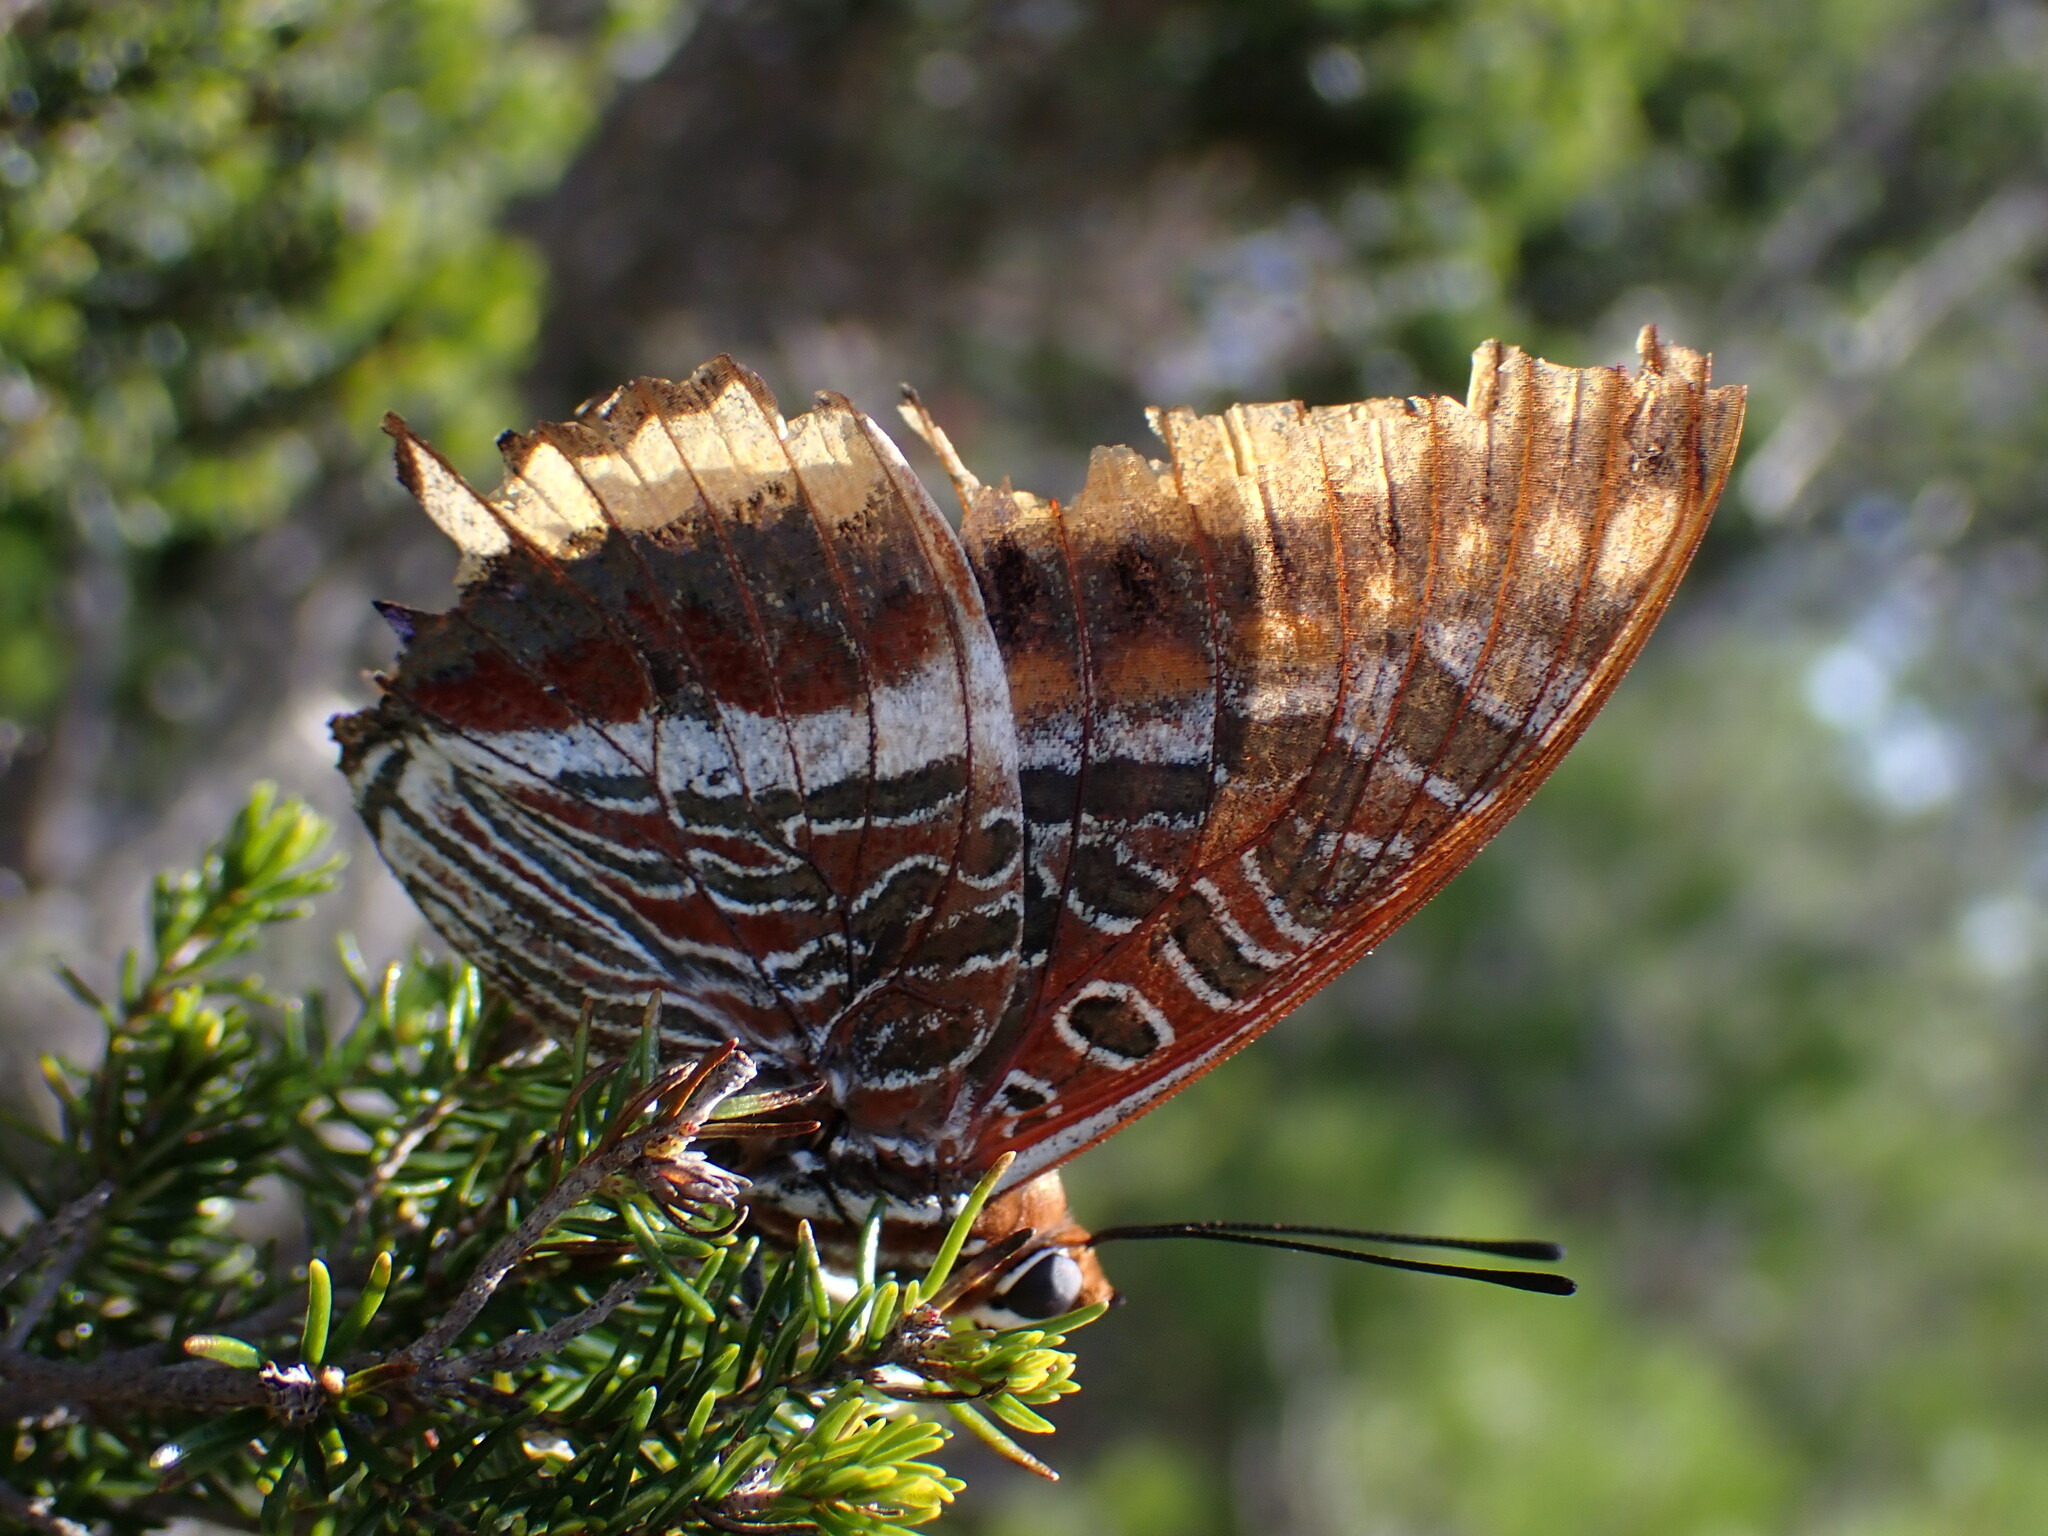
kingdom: Animalia
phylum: Arthropoda
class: Insecta
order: Lepidoptera
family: Nymphalidae
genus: Charaxes
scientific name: Charaxes jasius
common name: Two tailed pasha
